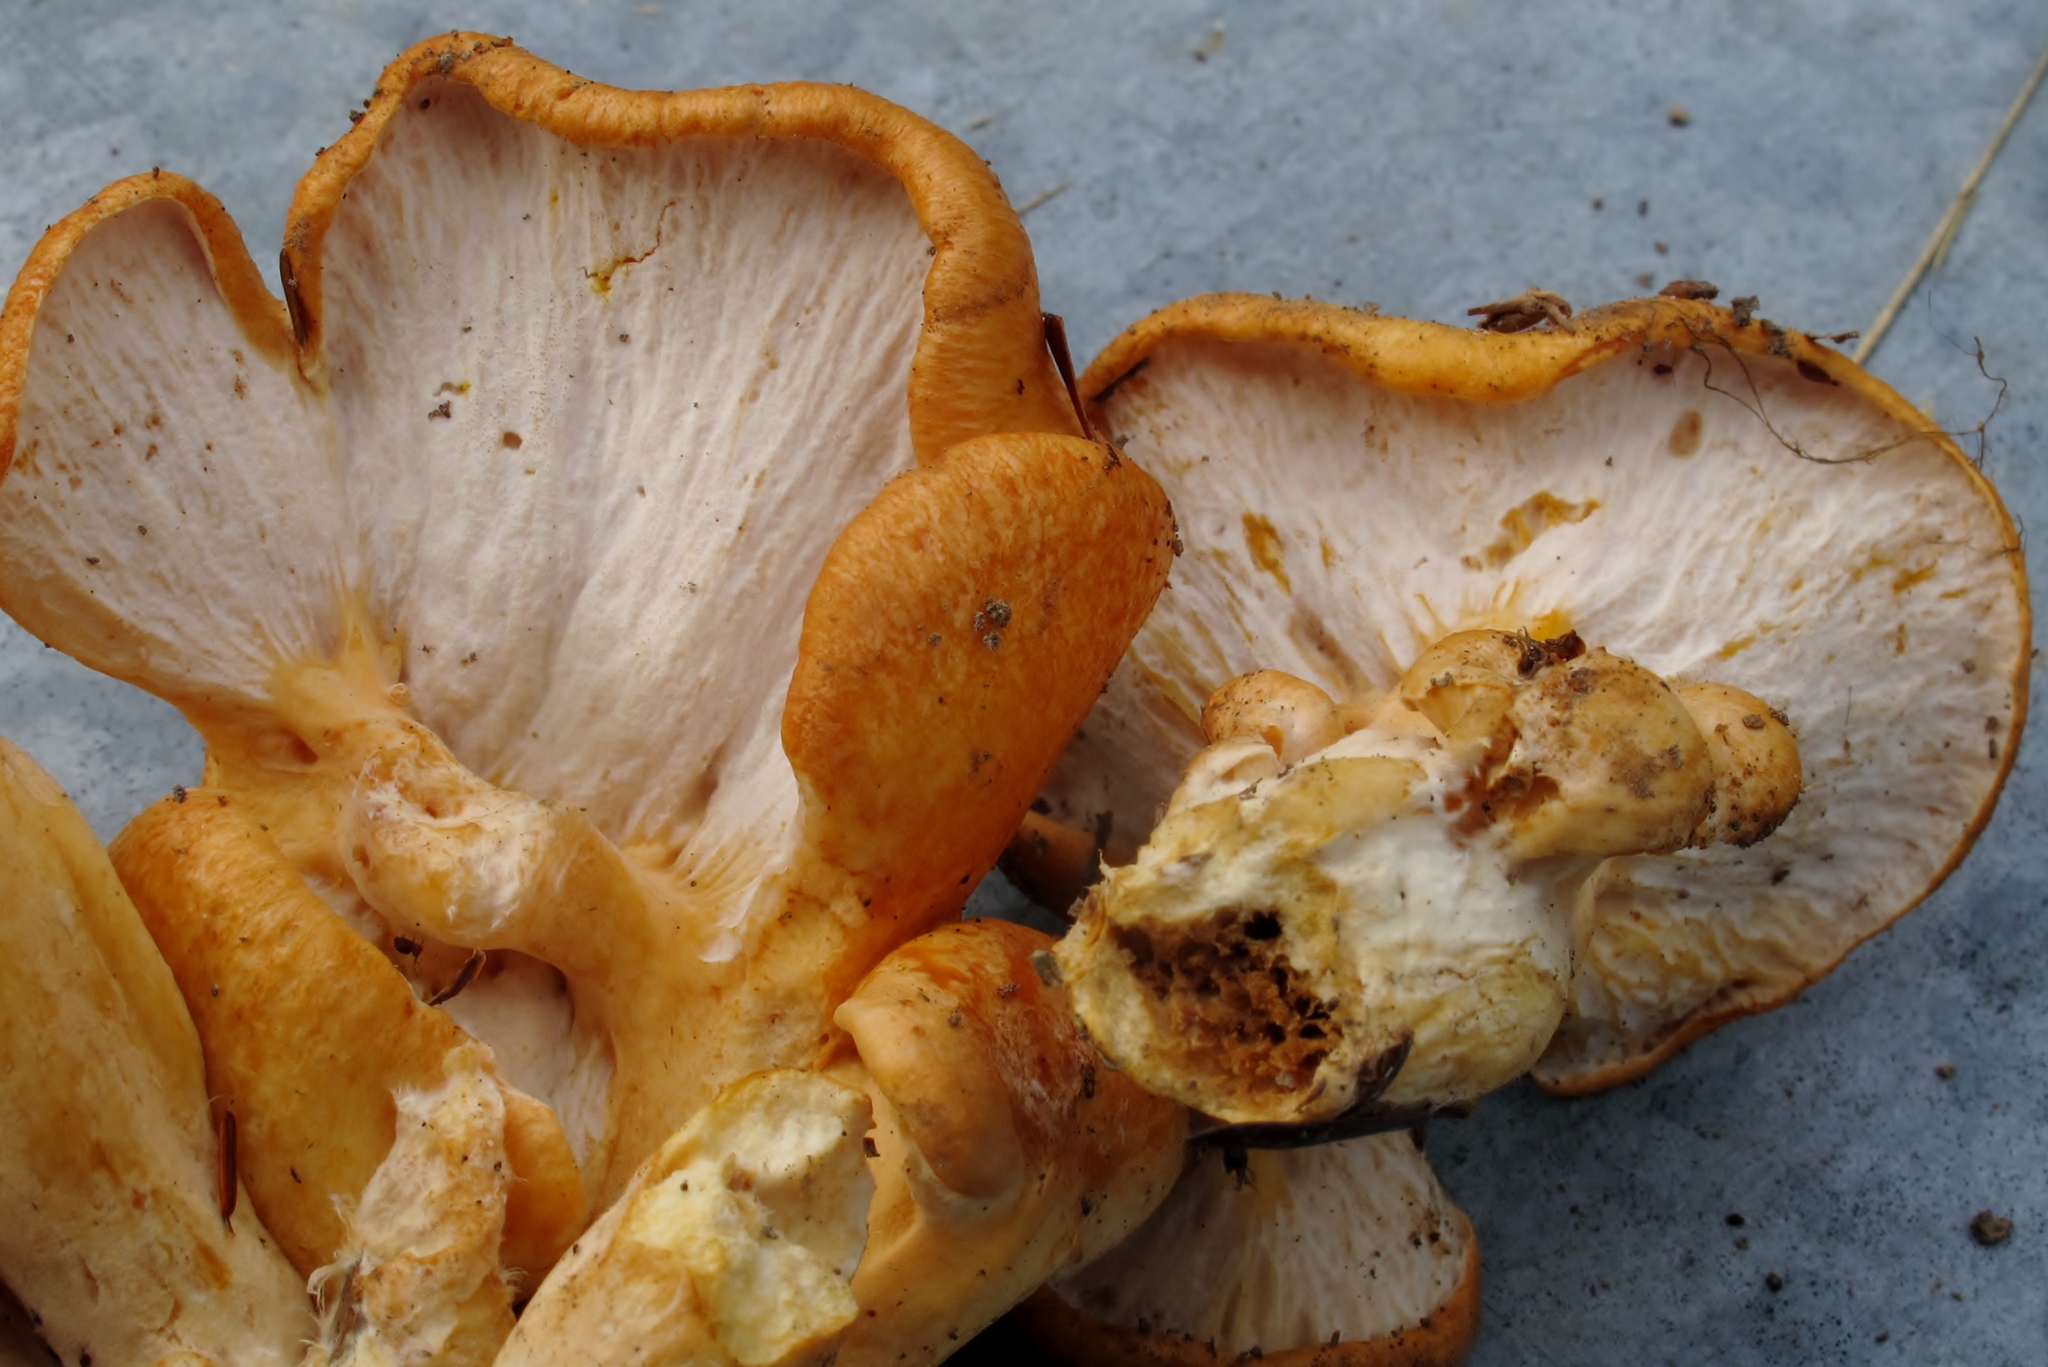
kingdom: Fungi
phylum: Ascomycota
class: Sordariomycetes
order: Hypocreales
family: Hypocreaceae
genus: Hypomyces
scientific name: Hypomyces lateritius
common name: Ochre gillgobbler
